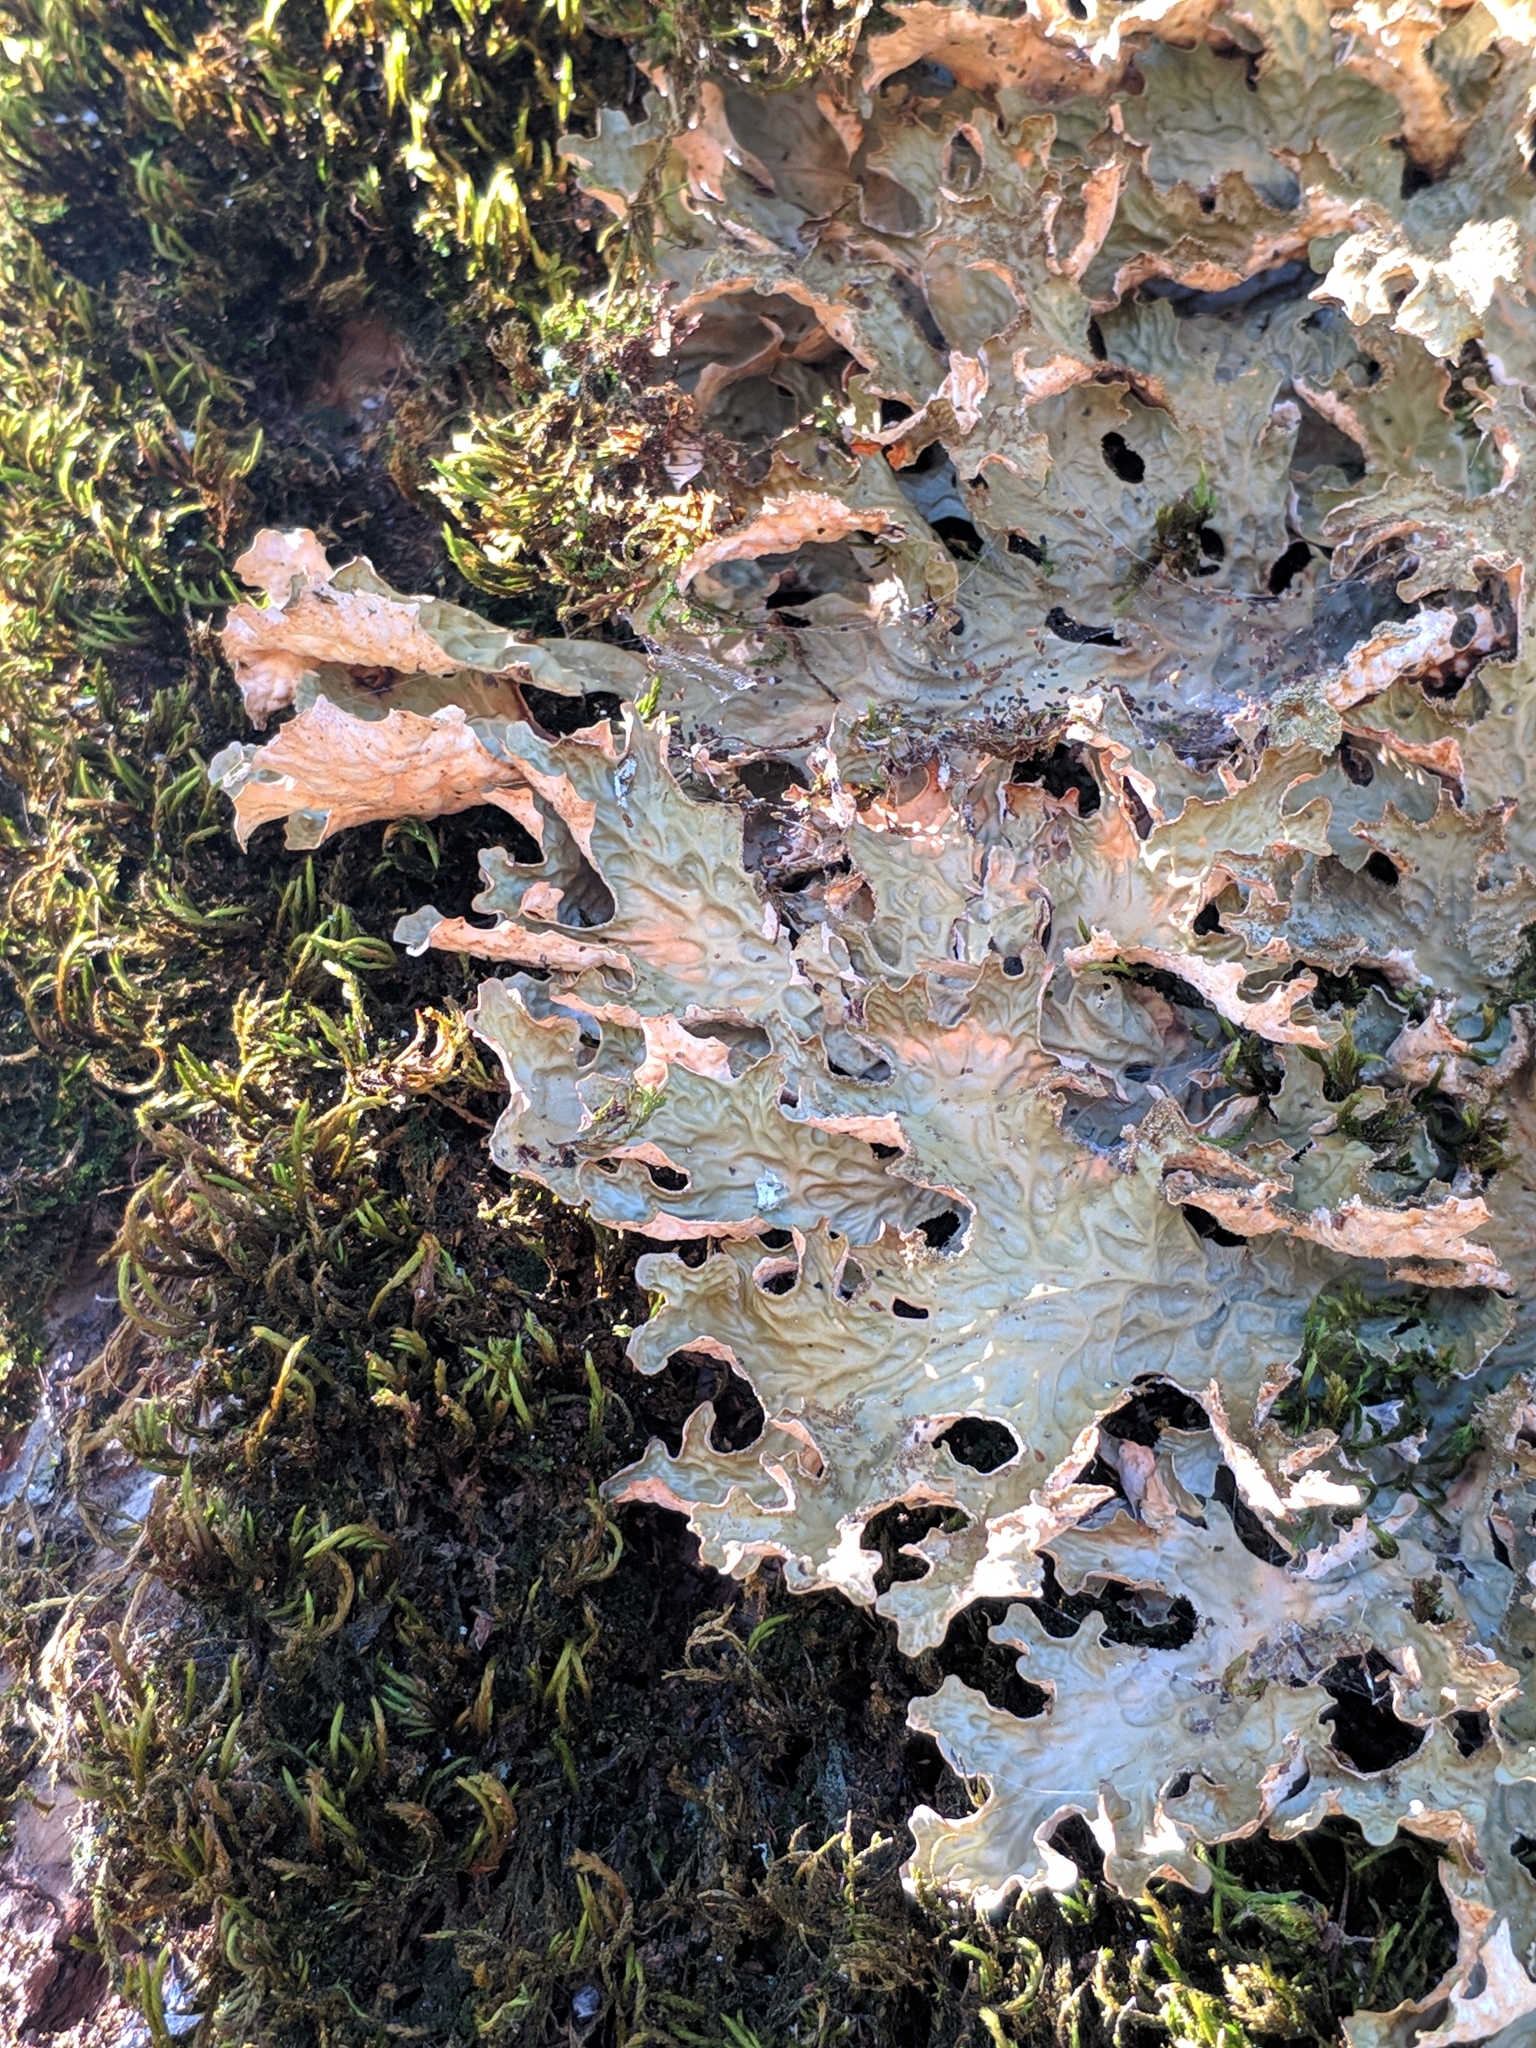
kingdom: Fungi
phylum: Ascomycota
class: Lecanoromycetes
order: Peltigerales
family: Lobariaceae
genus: Lobaria
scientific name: Lobaria pulmonaria
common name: Lungwort
